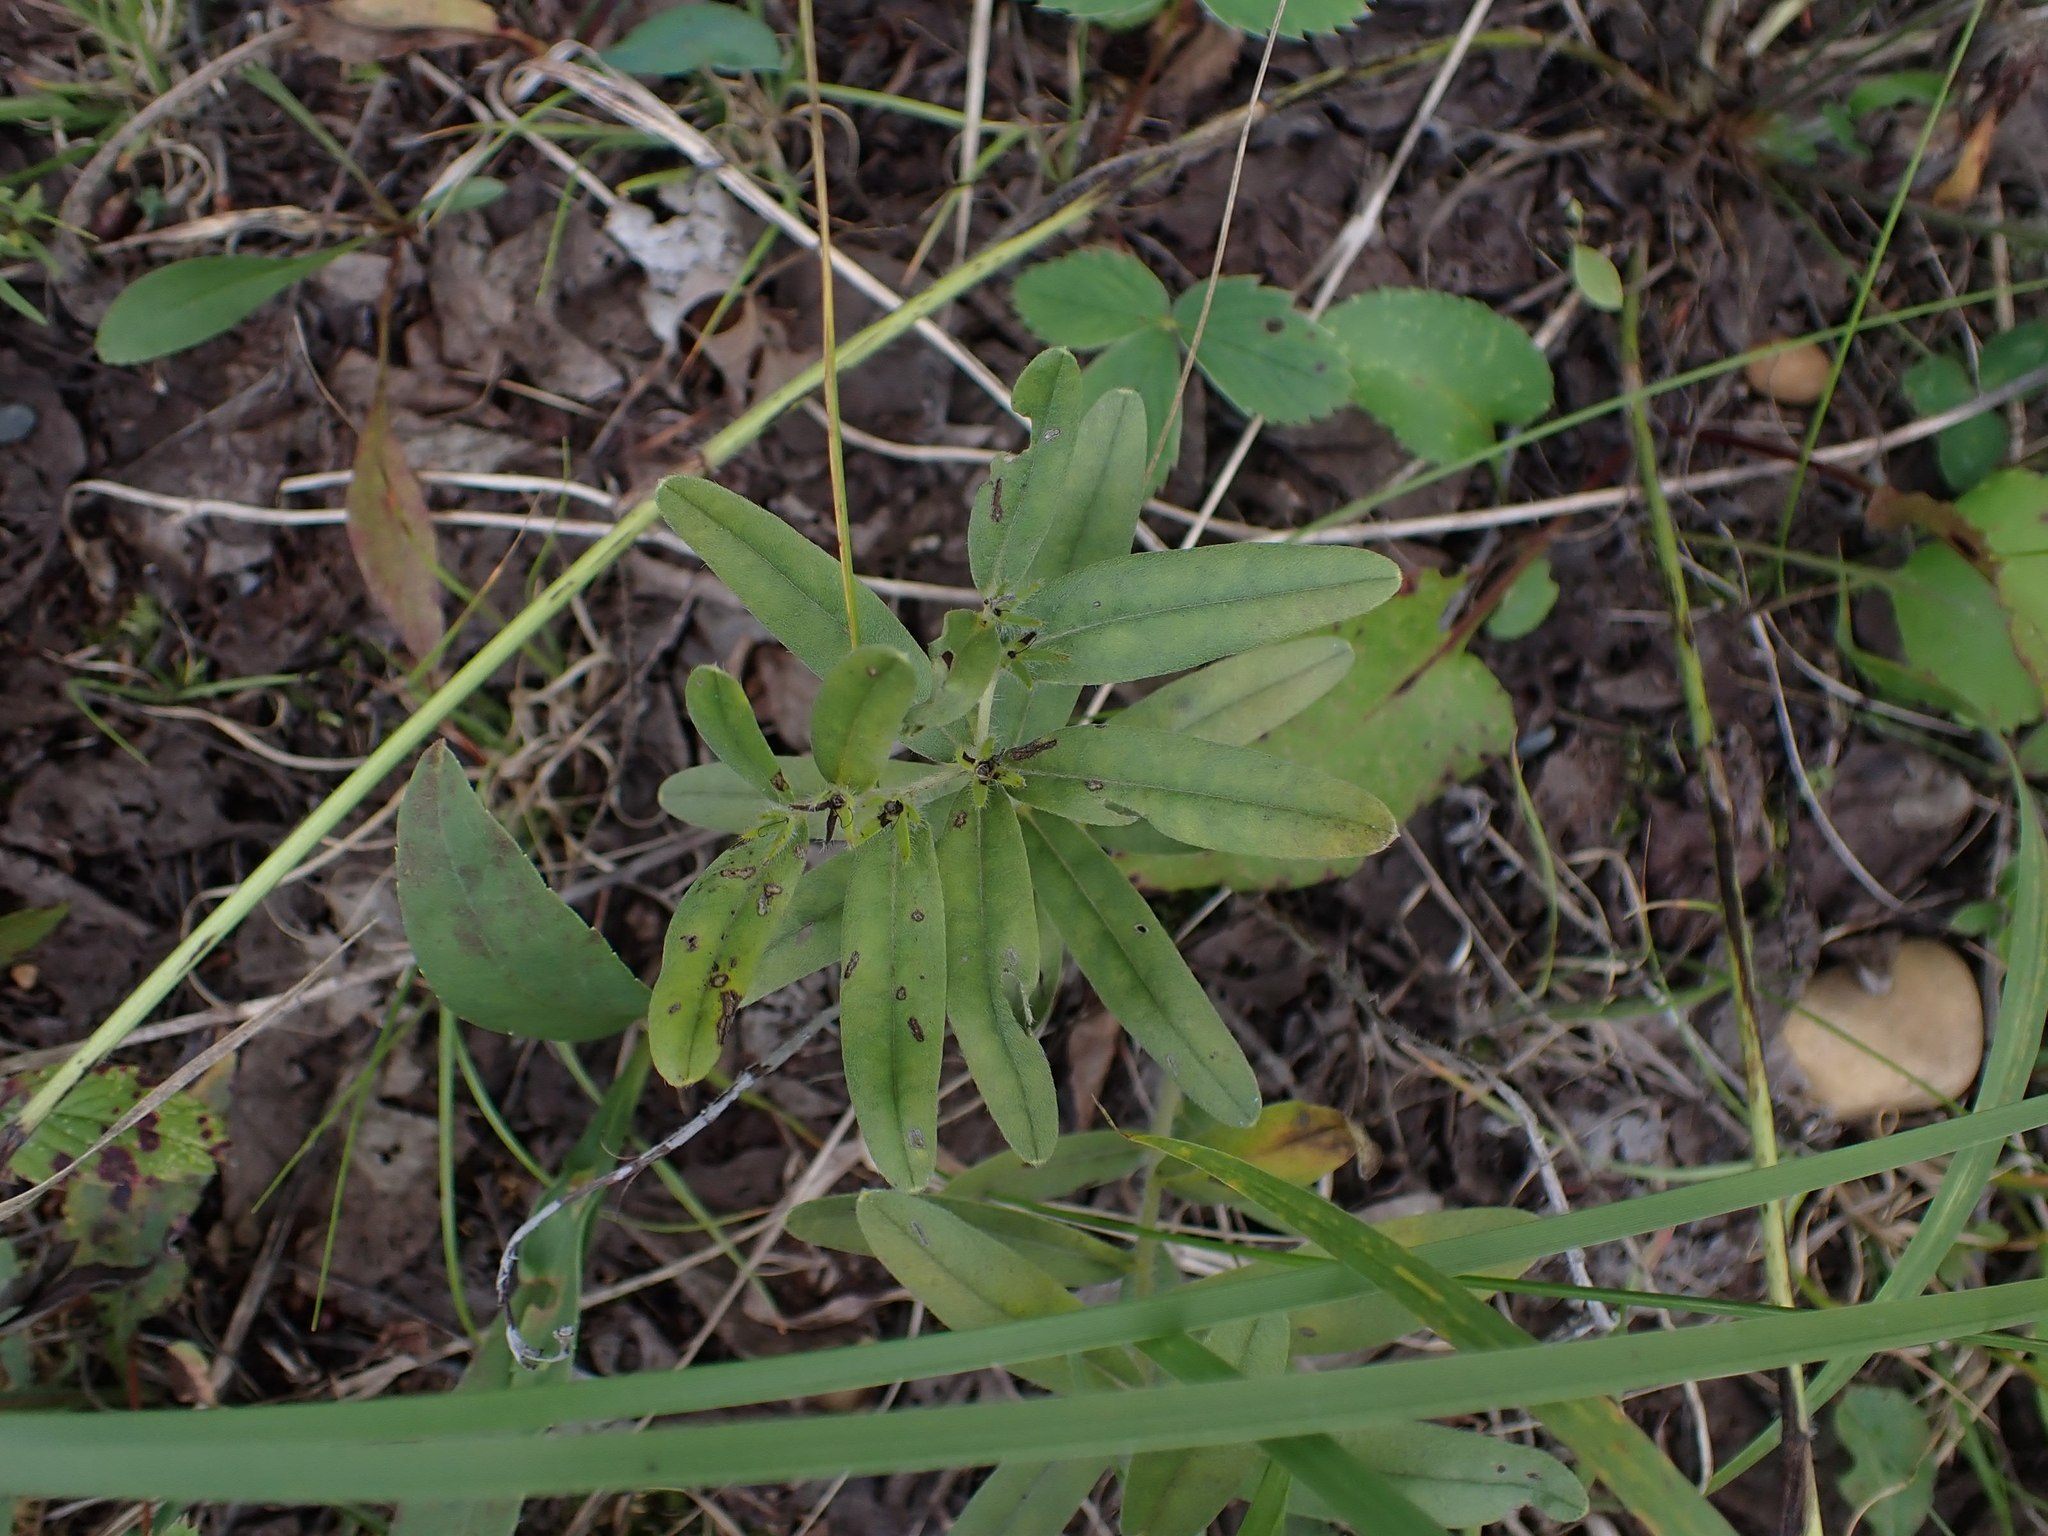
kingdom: Plantae
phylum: Tracheophyta
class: Magnoliopsida
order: Boraginales
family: Boraginaceae
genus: Lithospermum
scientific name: Lithospermum canescens
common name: Hoary puccoon
